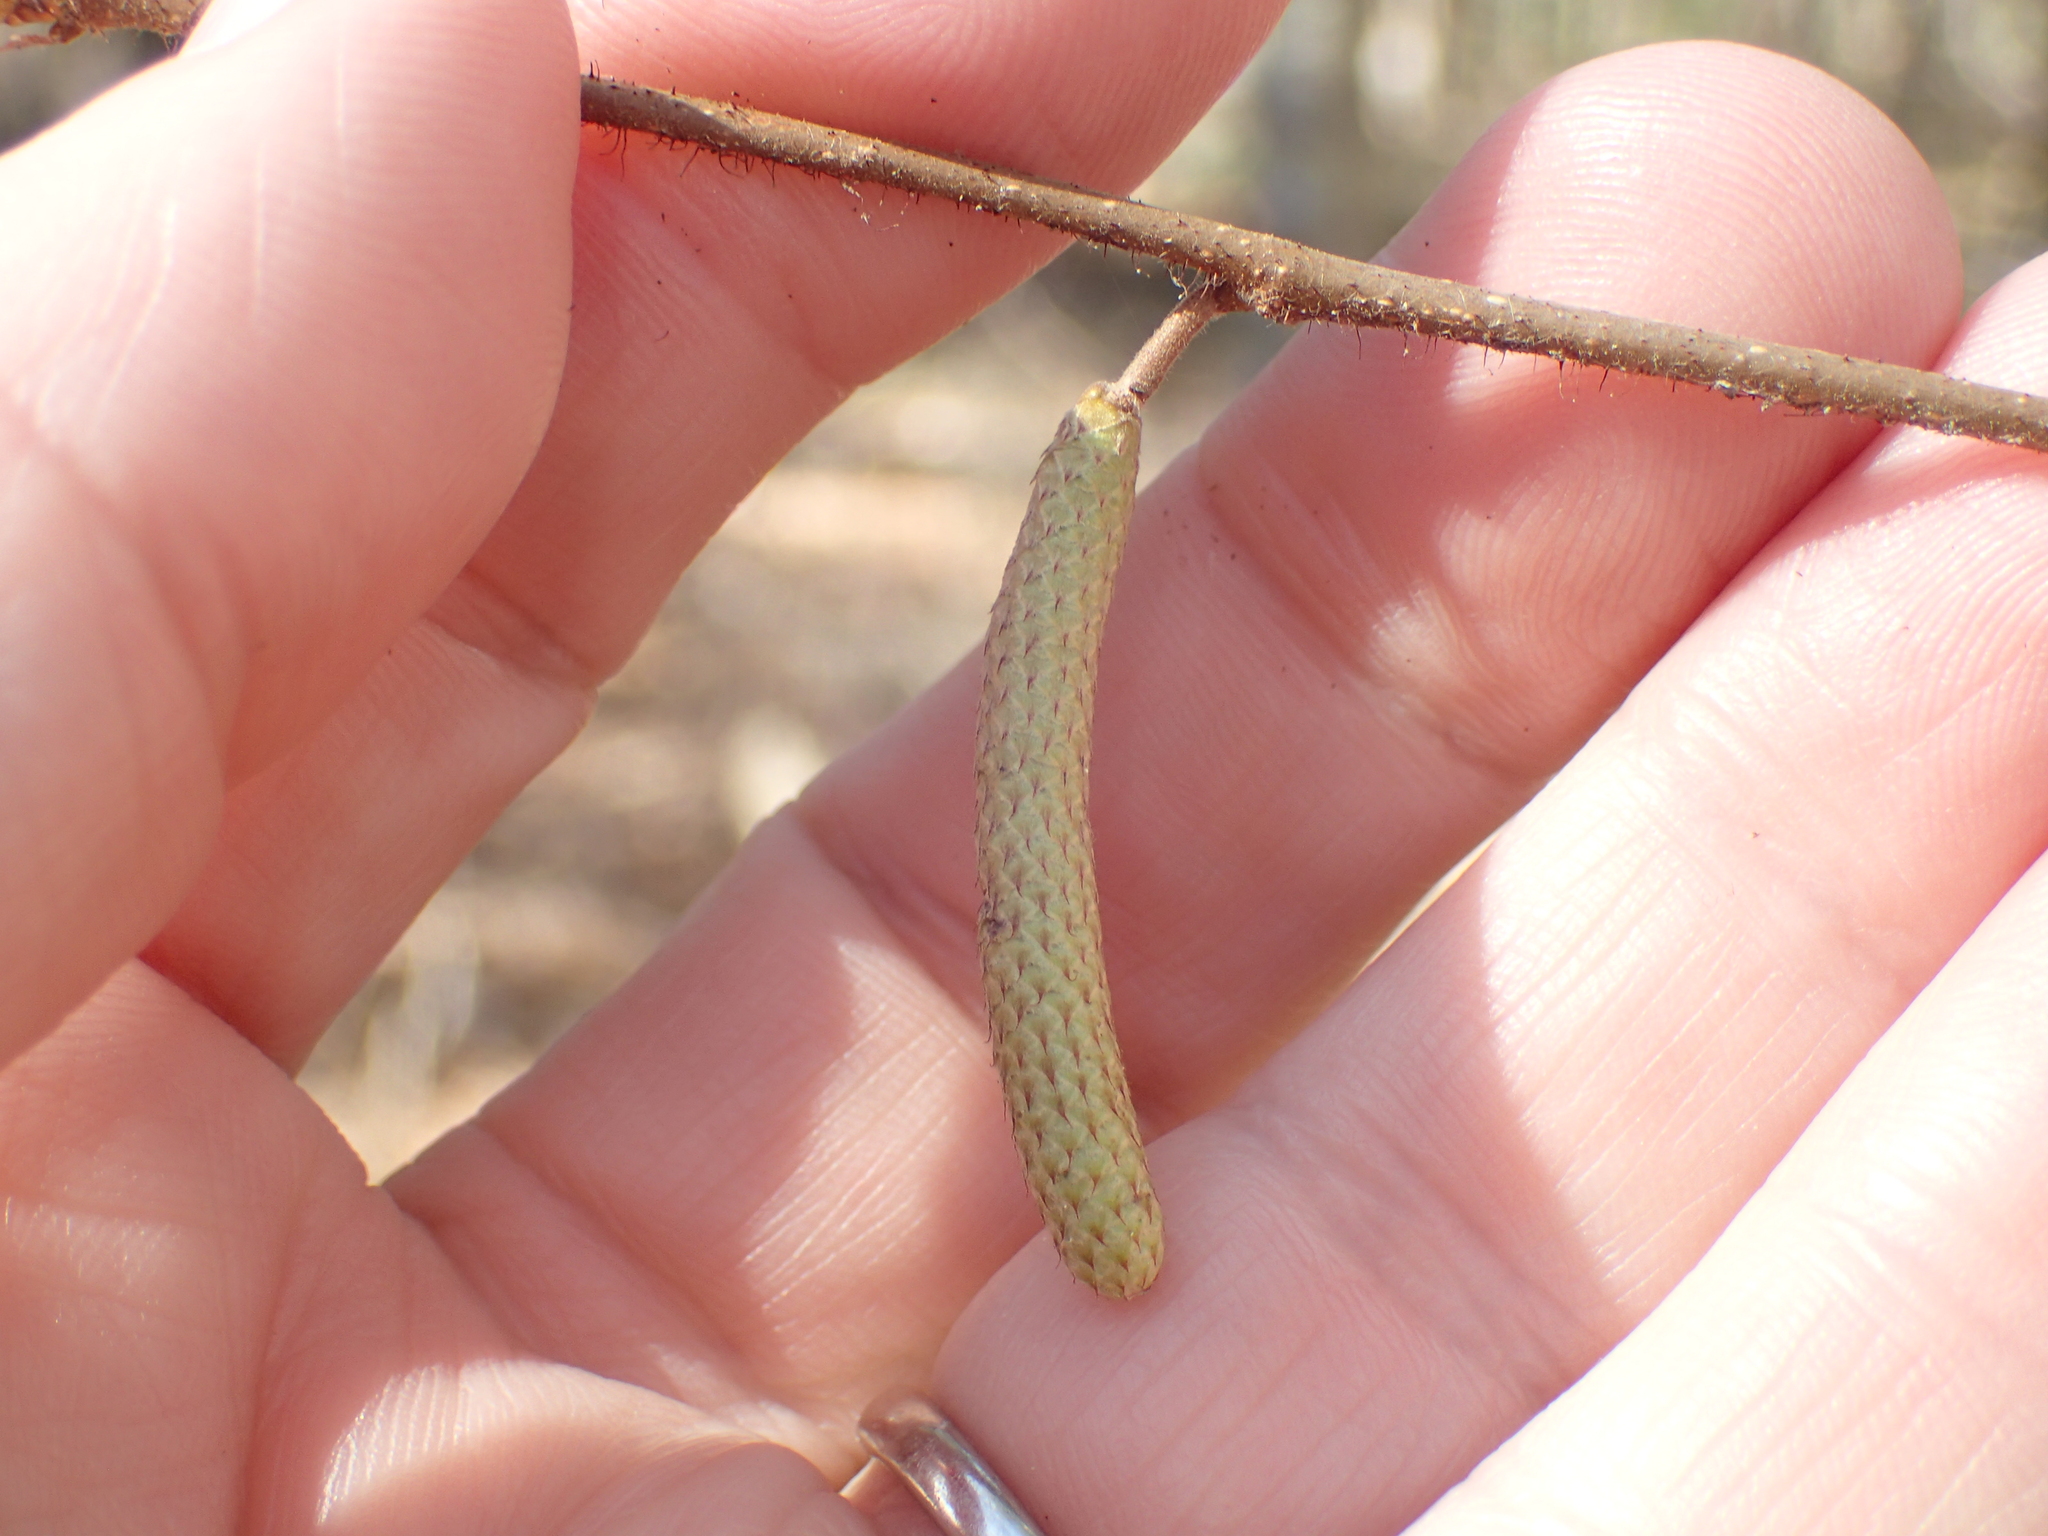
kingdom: Plantae
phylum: Tracheophyta
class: Magnoliopsida
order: Fagales
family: Betulaceae
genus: Corylus
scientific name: Corylus americana
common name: American hazel
